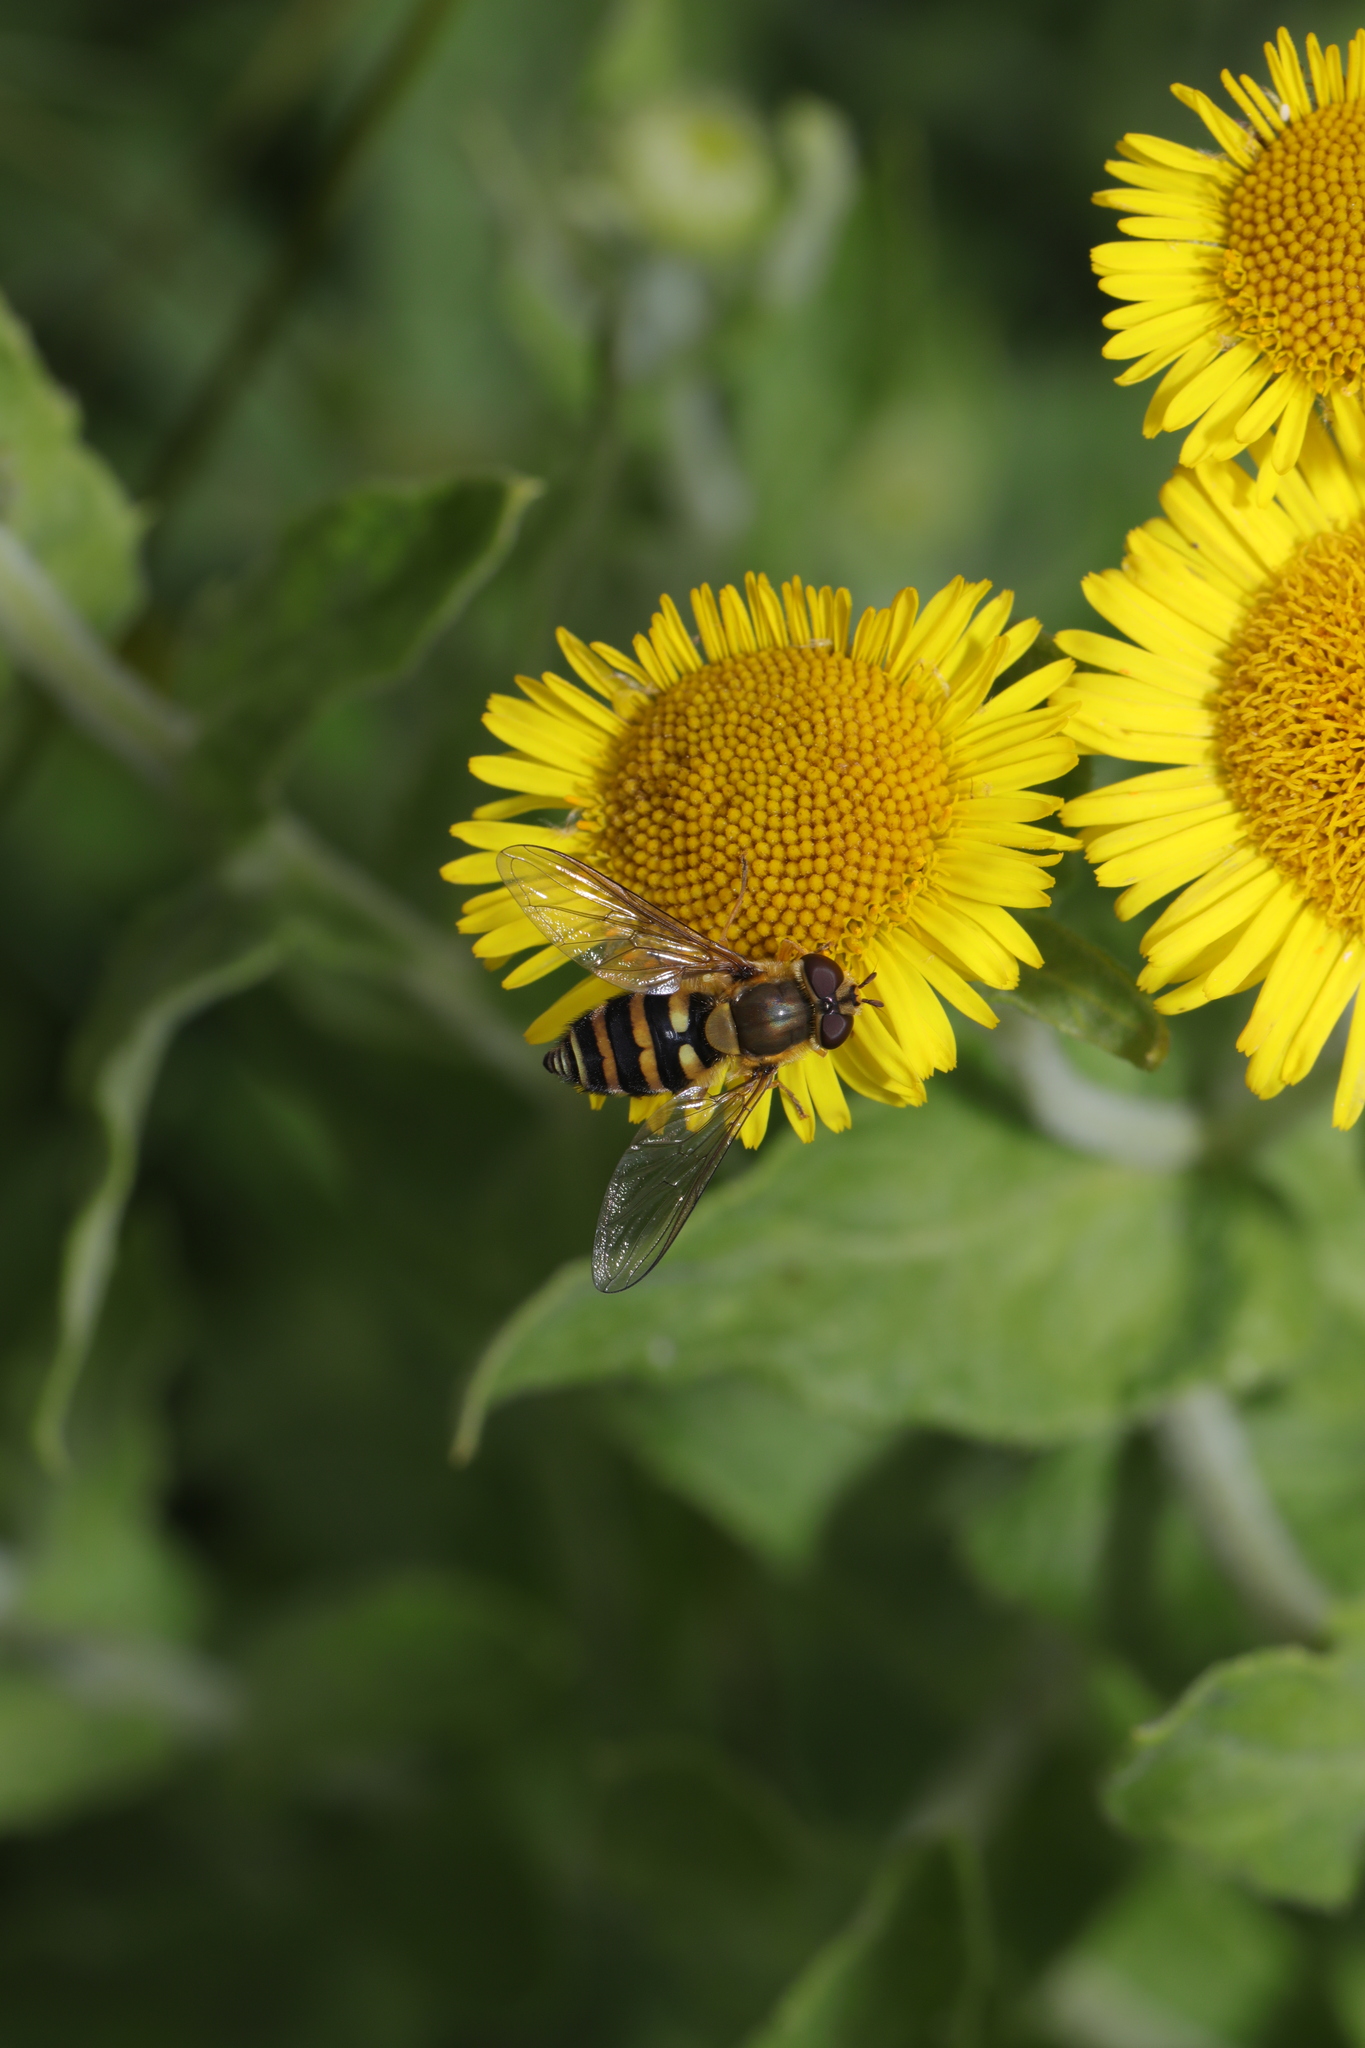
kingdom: Animalia
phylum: Arthropoda
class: Insecta
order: Diptera
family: Syrphidae
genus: Syrphus
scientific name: Syrphus
